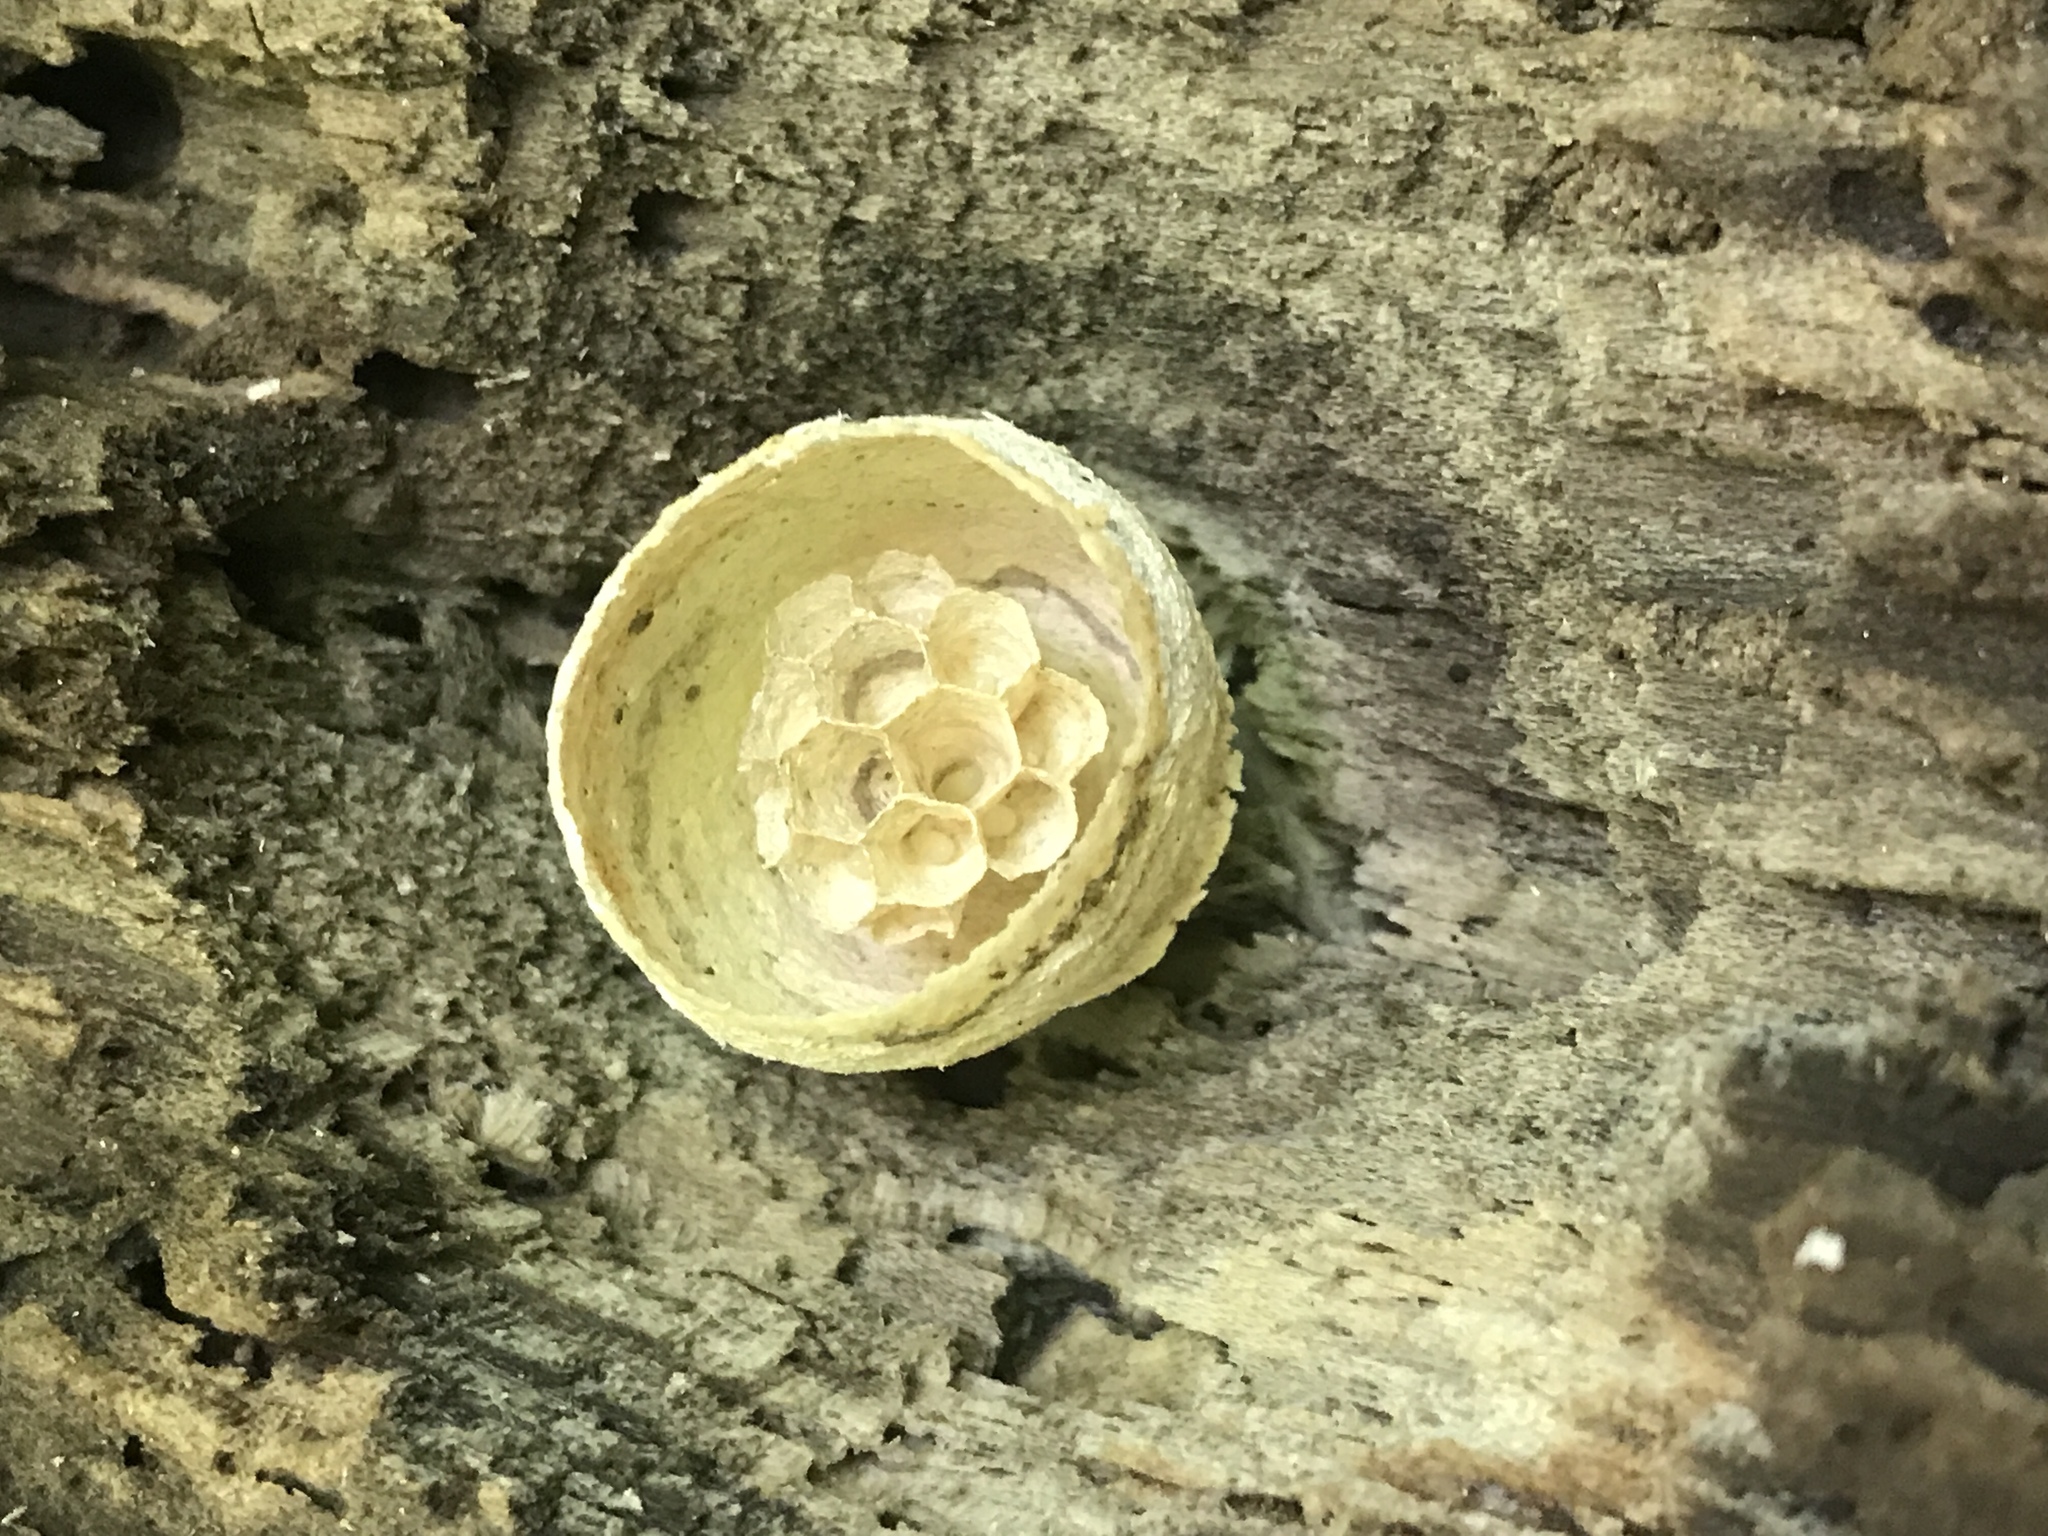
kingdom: Animalia
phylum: Arthropoda
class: Insecta
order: Hymenoptera
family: Vespidae
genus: Vespula
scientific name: Vespula
